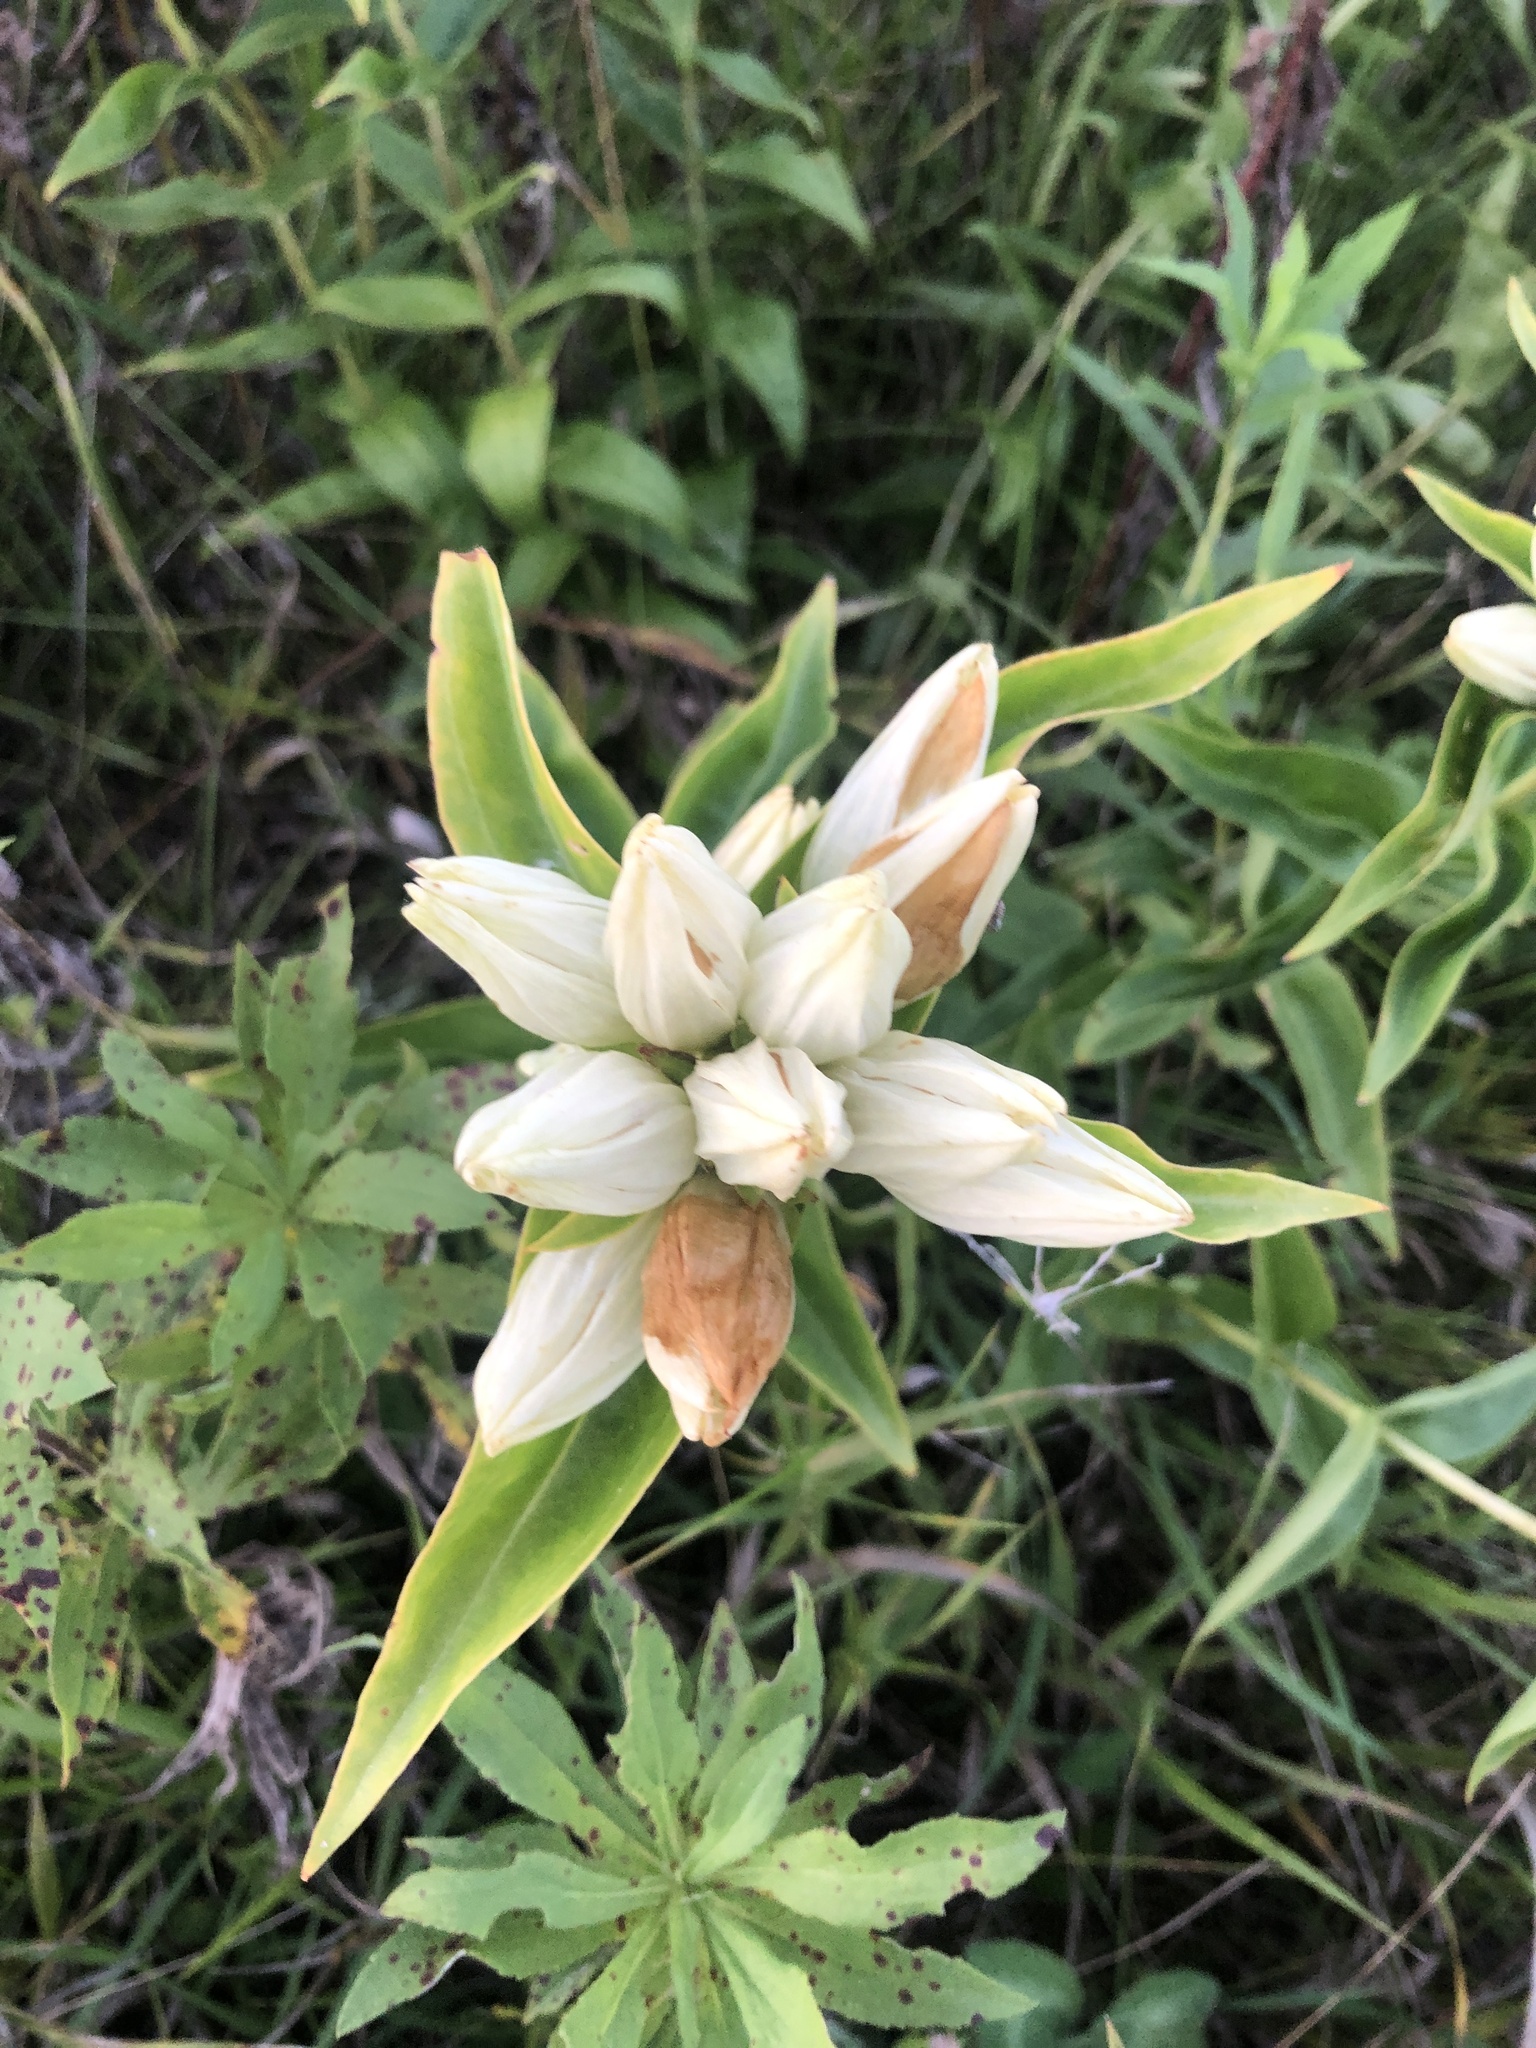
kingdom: Plantae
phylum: Tracheophyta
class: Magnoliopsida
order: Gentianales
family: Gentianaceae
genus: Gentiana
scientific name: Gentiana alba
